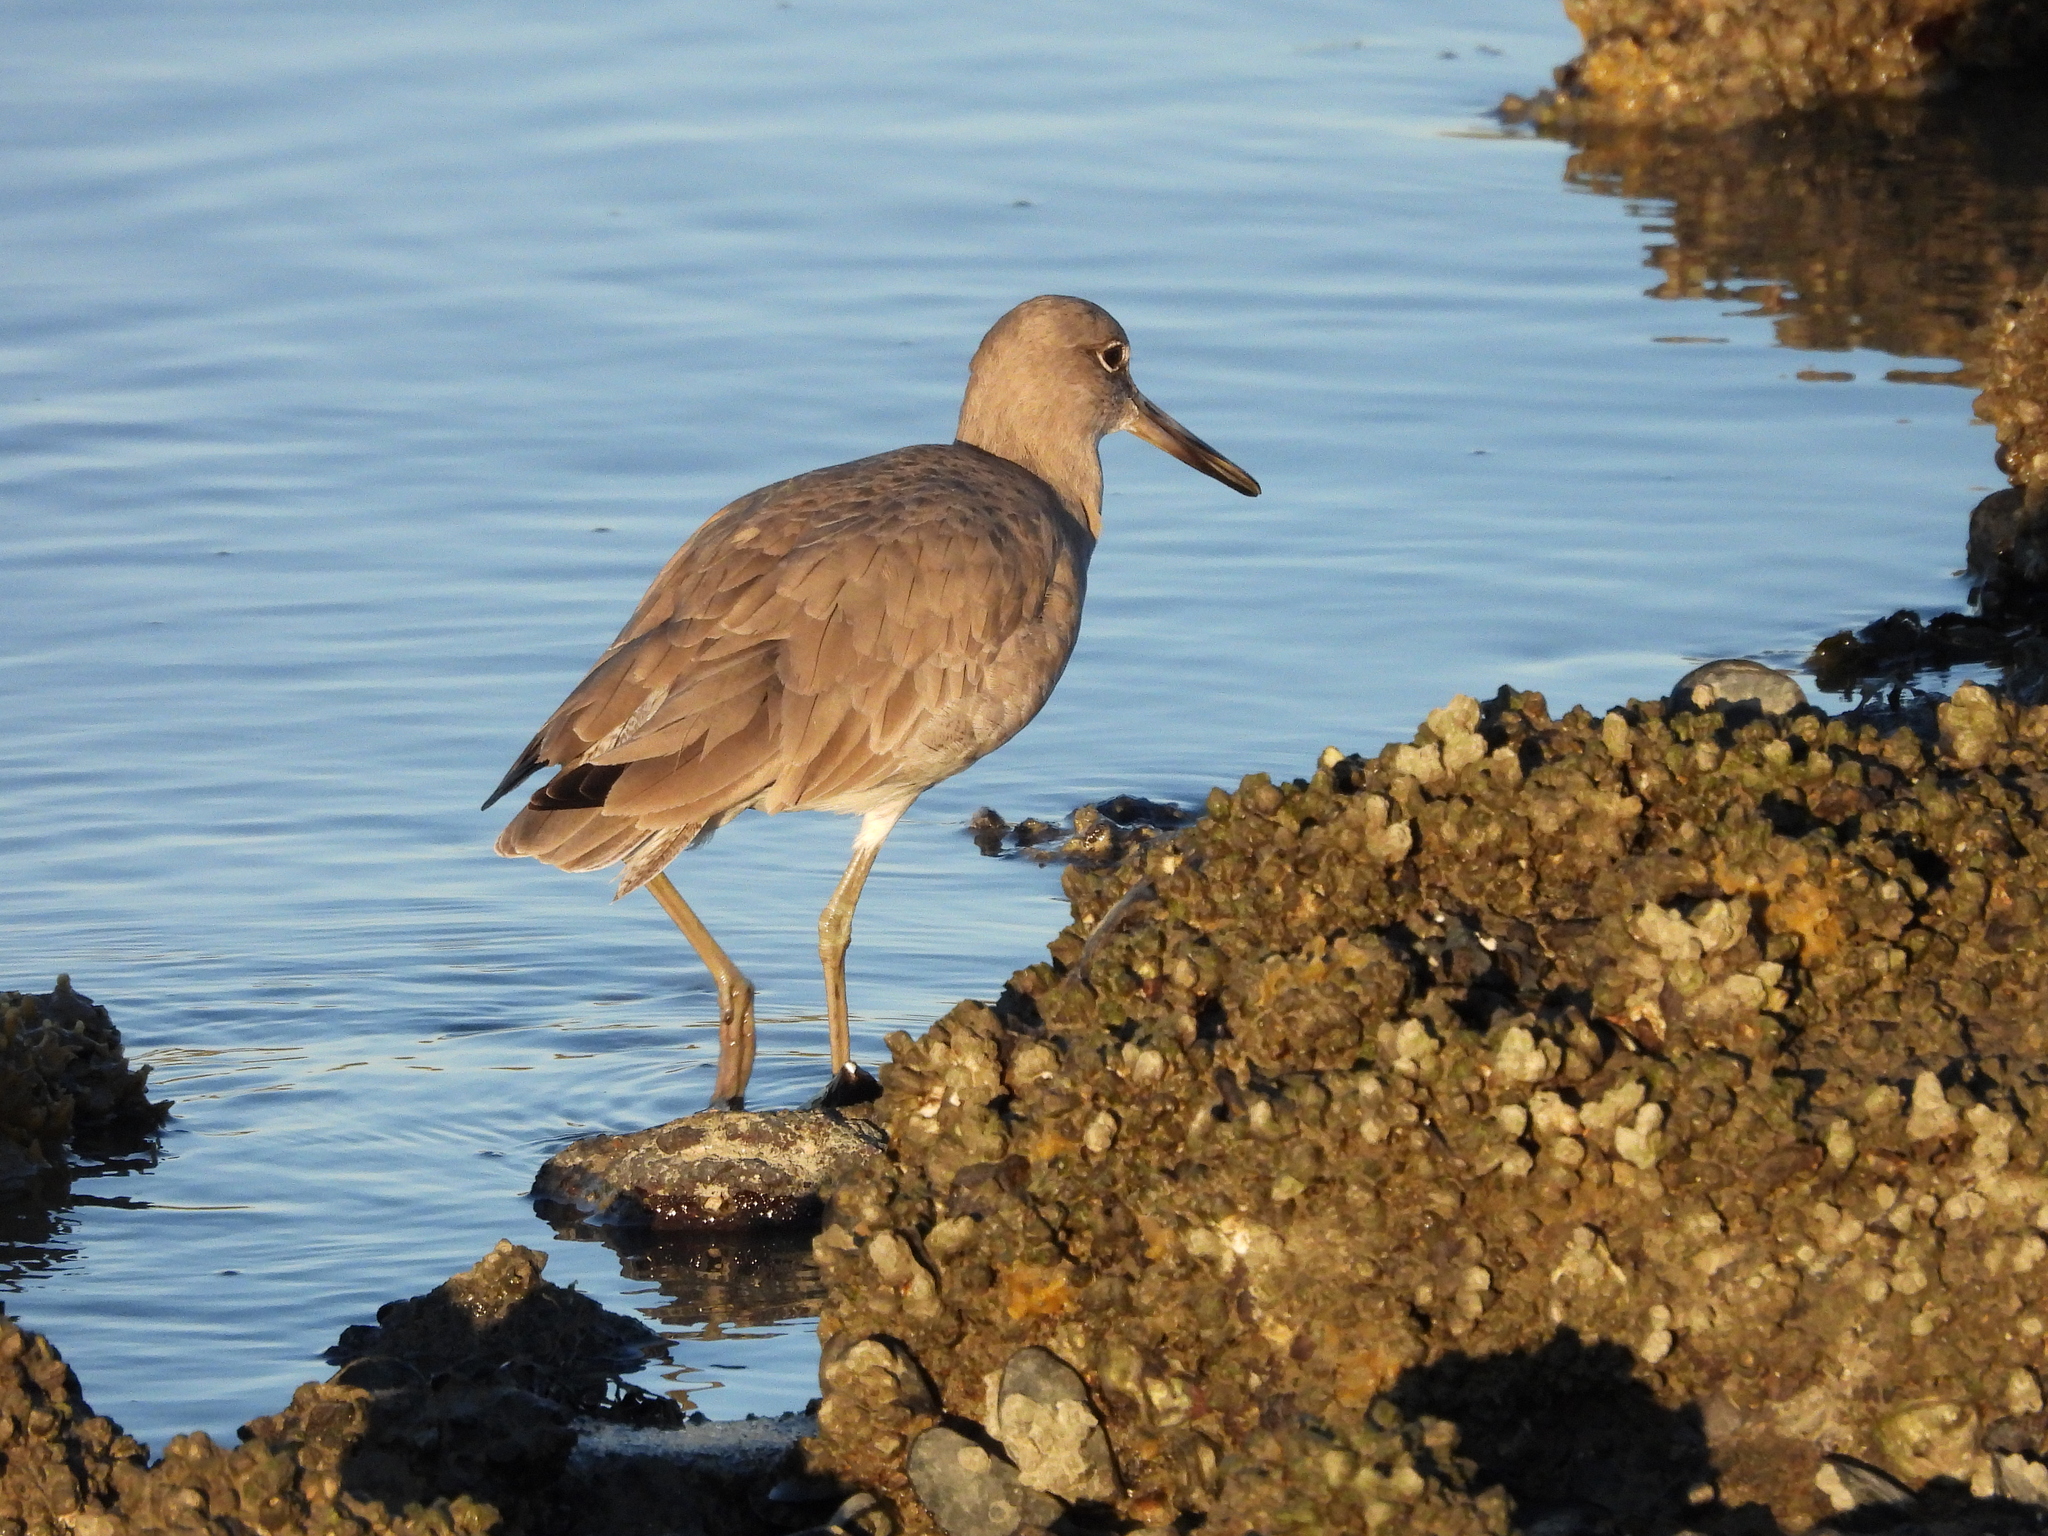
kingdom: Animalia
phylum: Chordata
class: Aves
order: Charadriiformes
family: Scolopacidae
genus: Tringa
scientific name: Tringa semipalmata
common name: Willet
